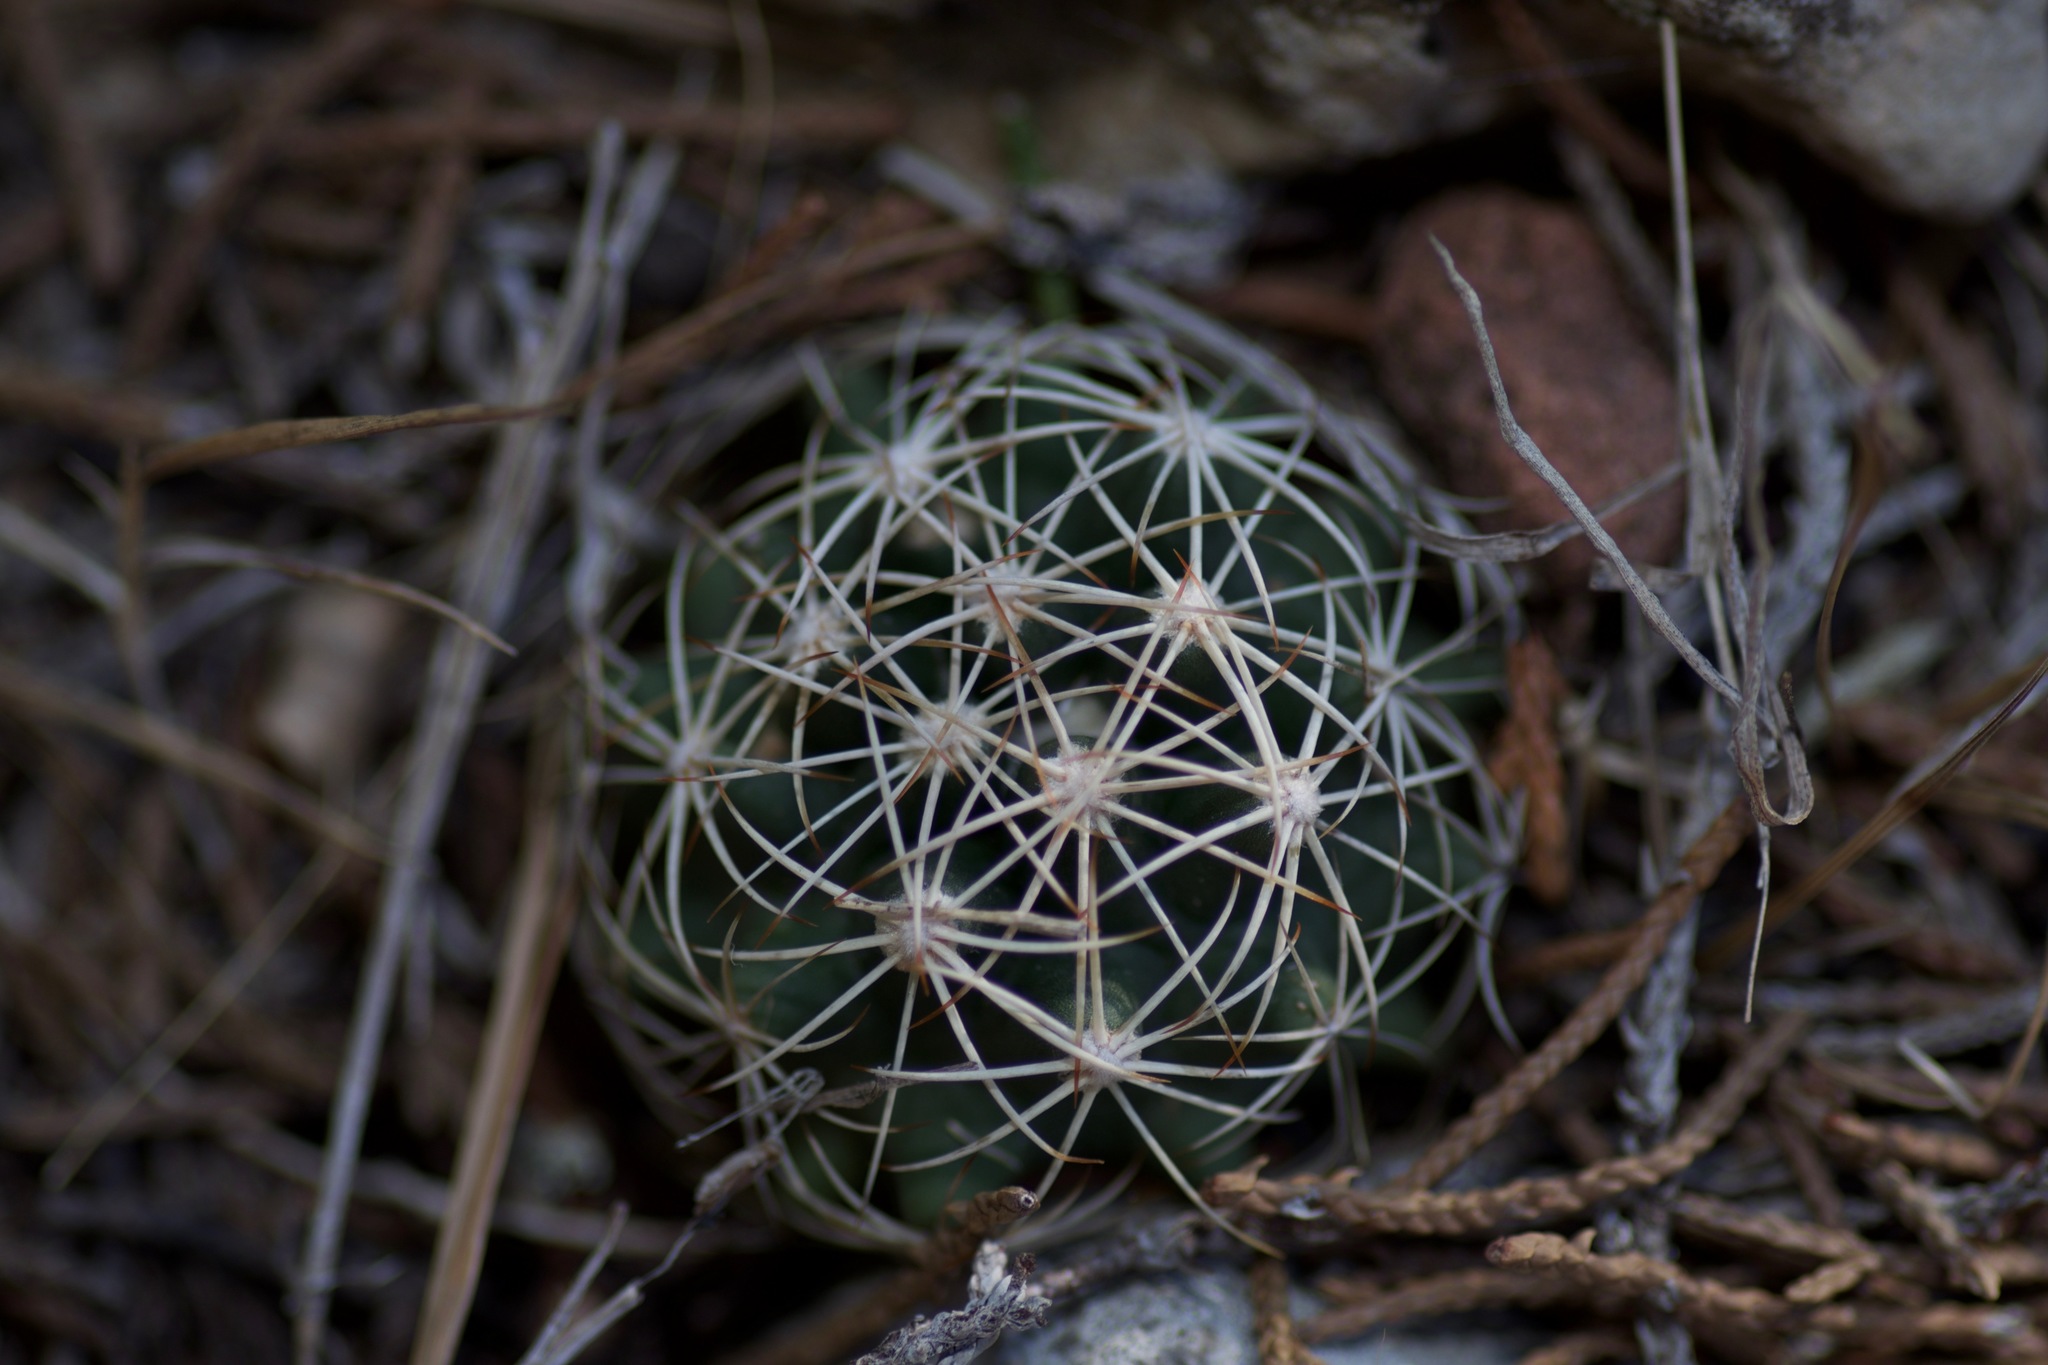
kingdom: Plantae
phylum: Tracheophyta
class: Magnoliopsida
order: Caryophyllales
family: Cactaceae
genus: Coryphantha
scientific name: Coryphantha sulcata
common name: Finger cactus
